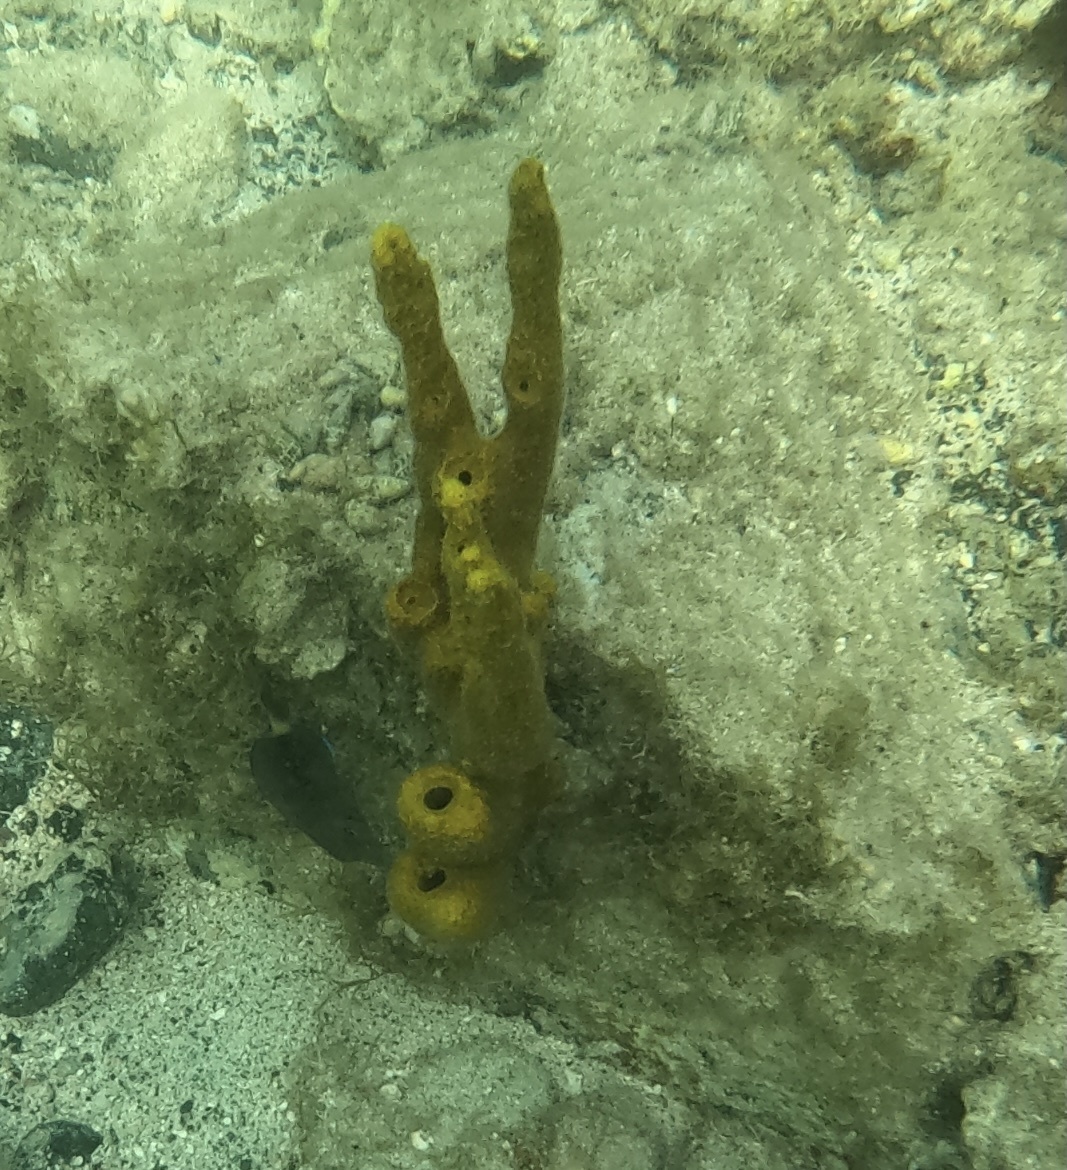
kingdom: Animalia
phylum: Porifera
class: Demospongiae
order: Verongiida
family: Aplysinidae
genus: Aplysina
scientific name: Aplysina fulva
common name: Scattered pore rope sponge
